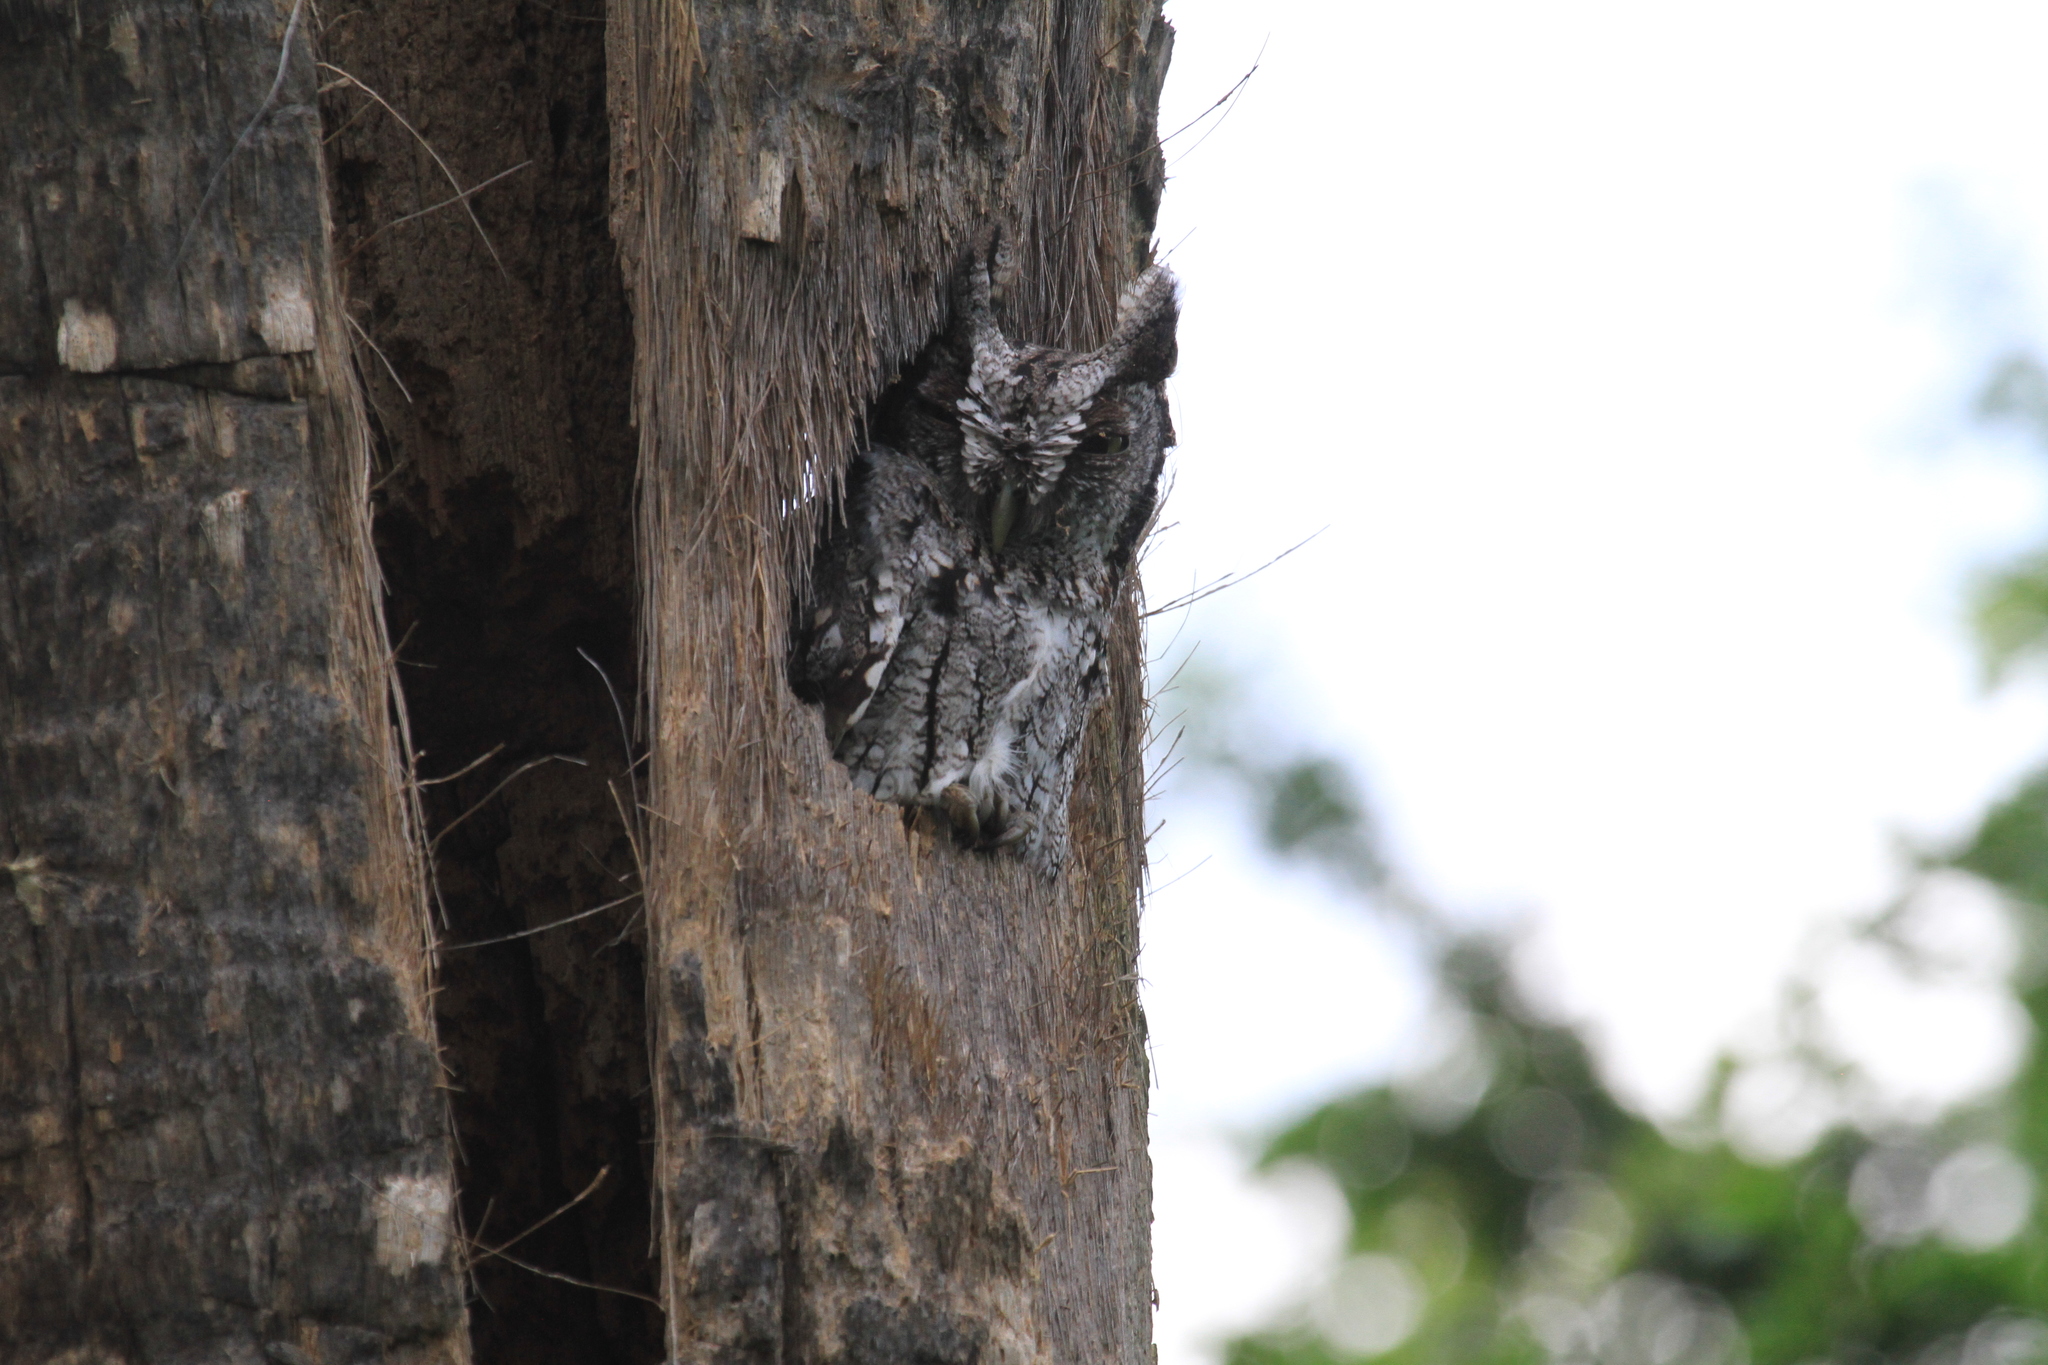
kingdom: Animalia
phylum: Chordata
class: Aves
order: Strigiformes
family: Strigidae
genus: Megascops
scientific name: Megascops asio
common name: Eastern screech-owl
